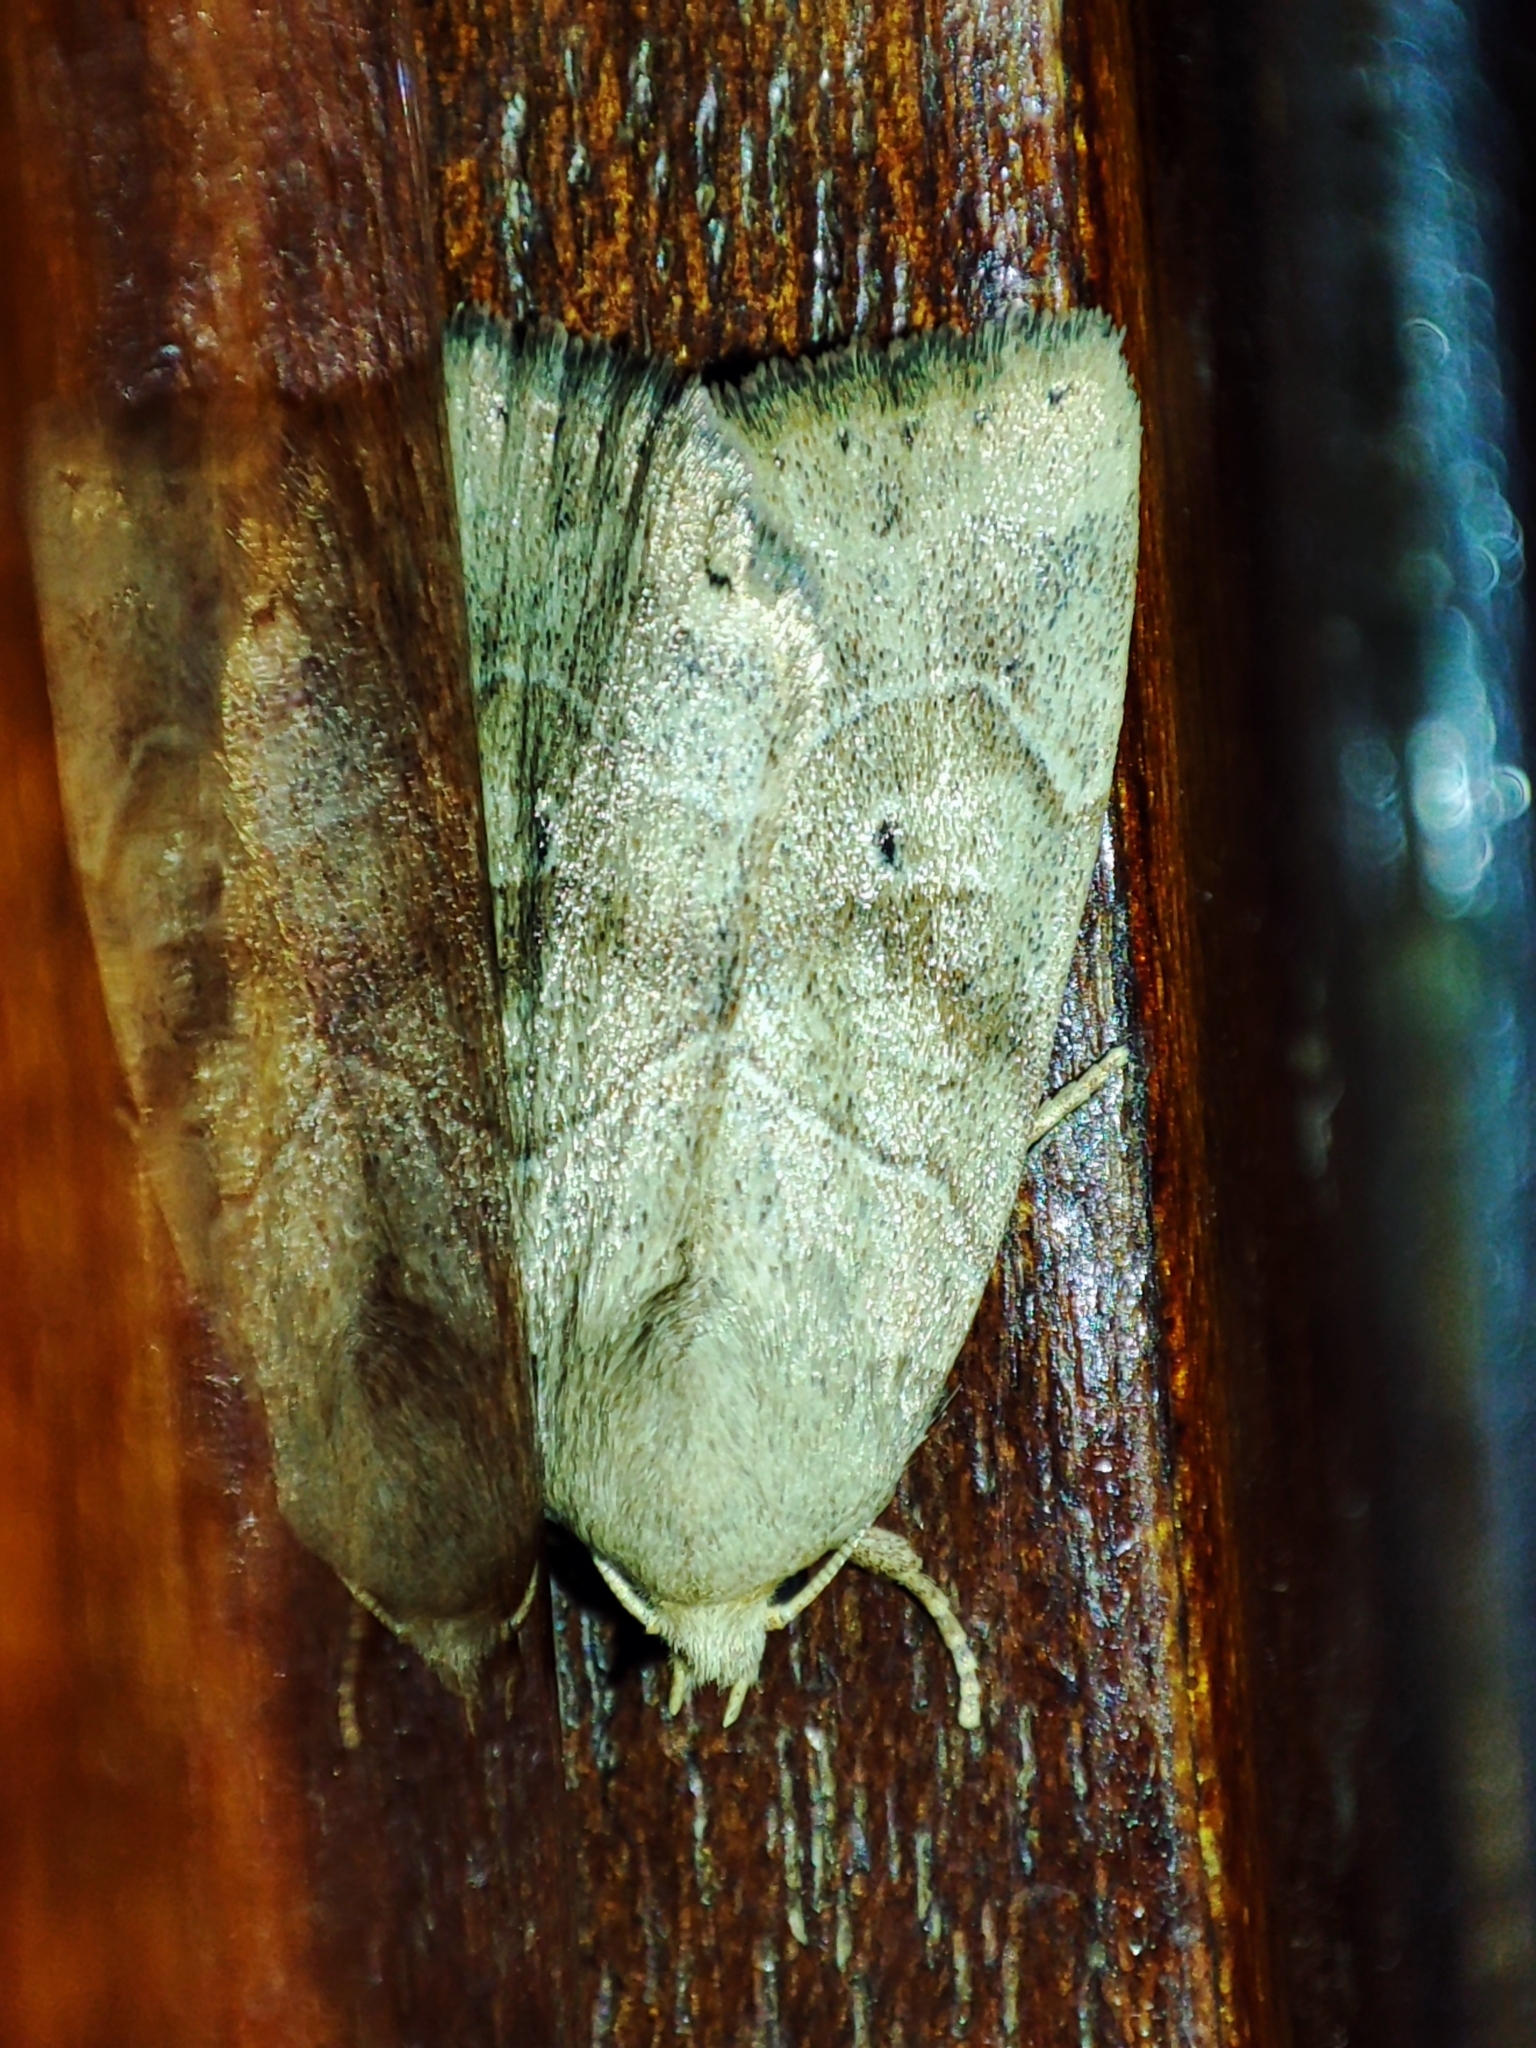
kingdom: Animalia
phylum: Arthropoda
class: Insecta
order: Lepidoptera
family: Noctuidae
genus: Cosmia
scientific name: Cosmia trapezina
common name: Dun-bar
